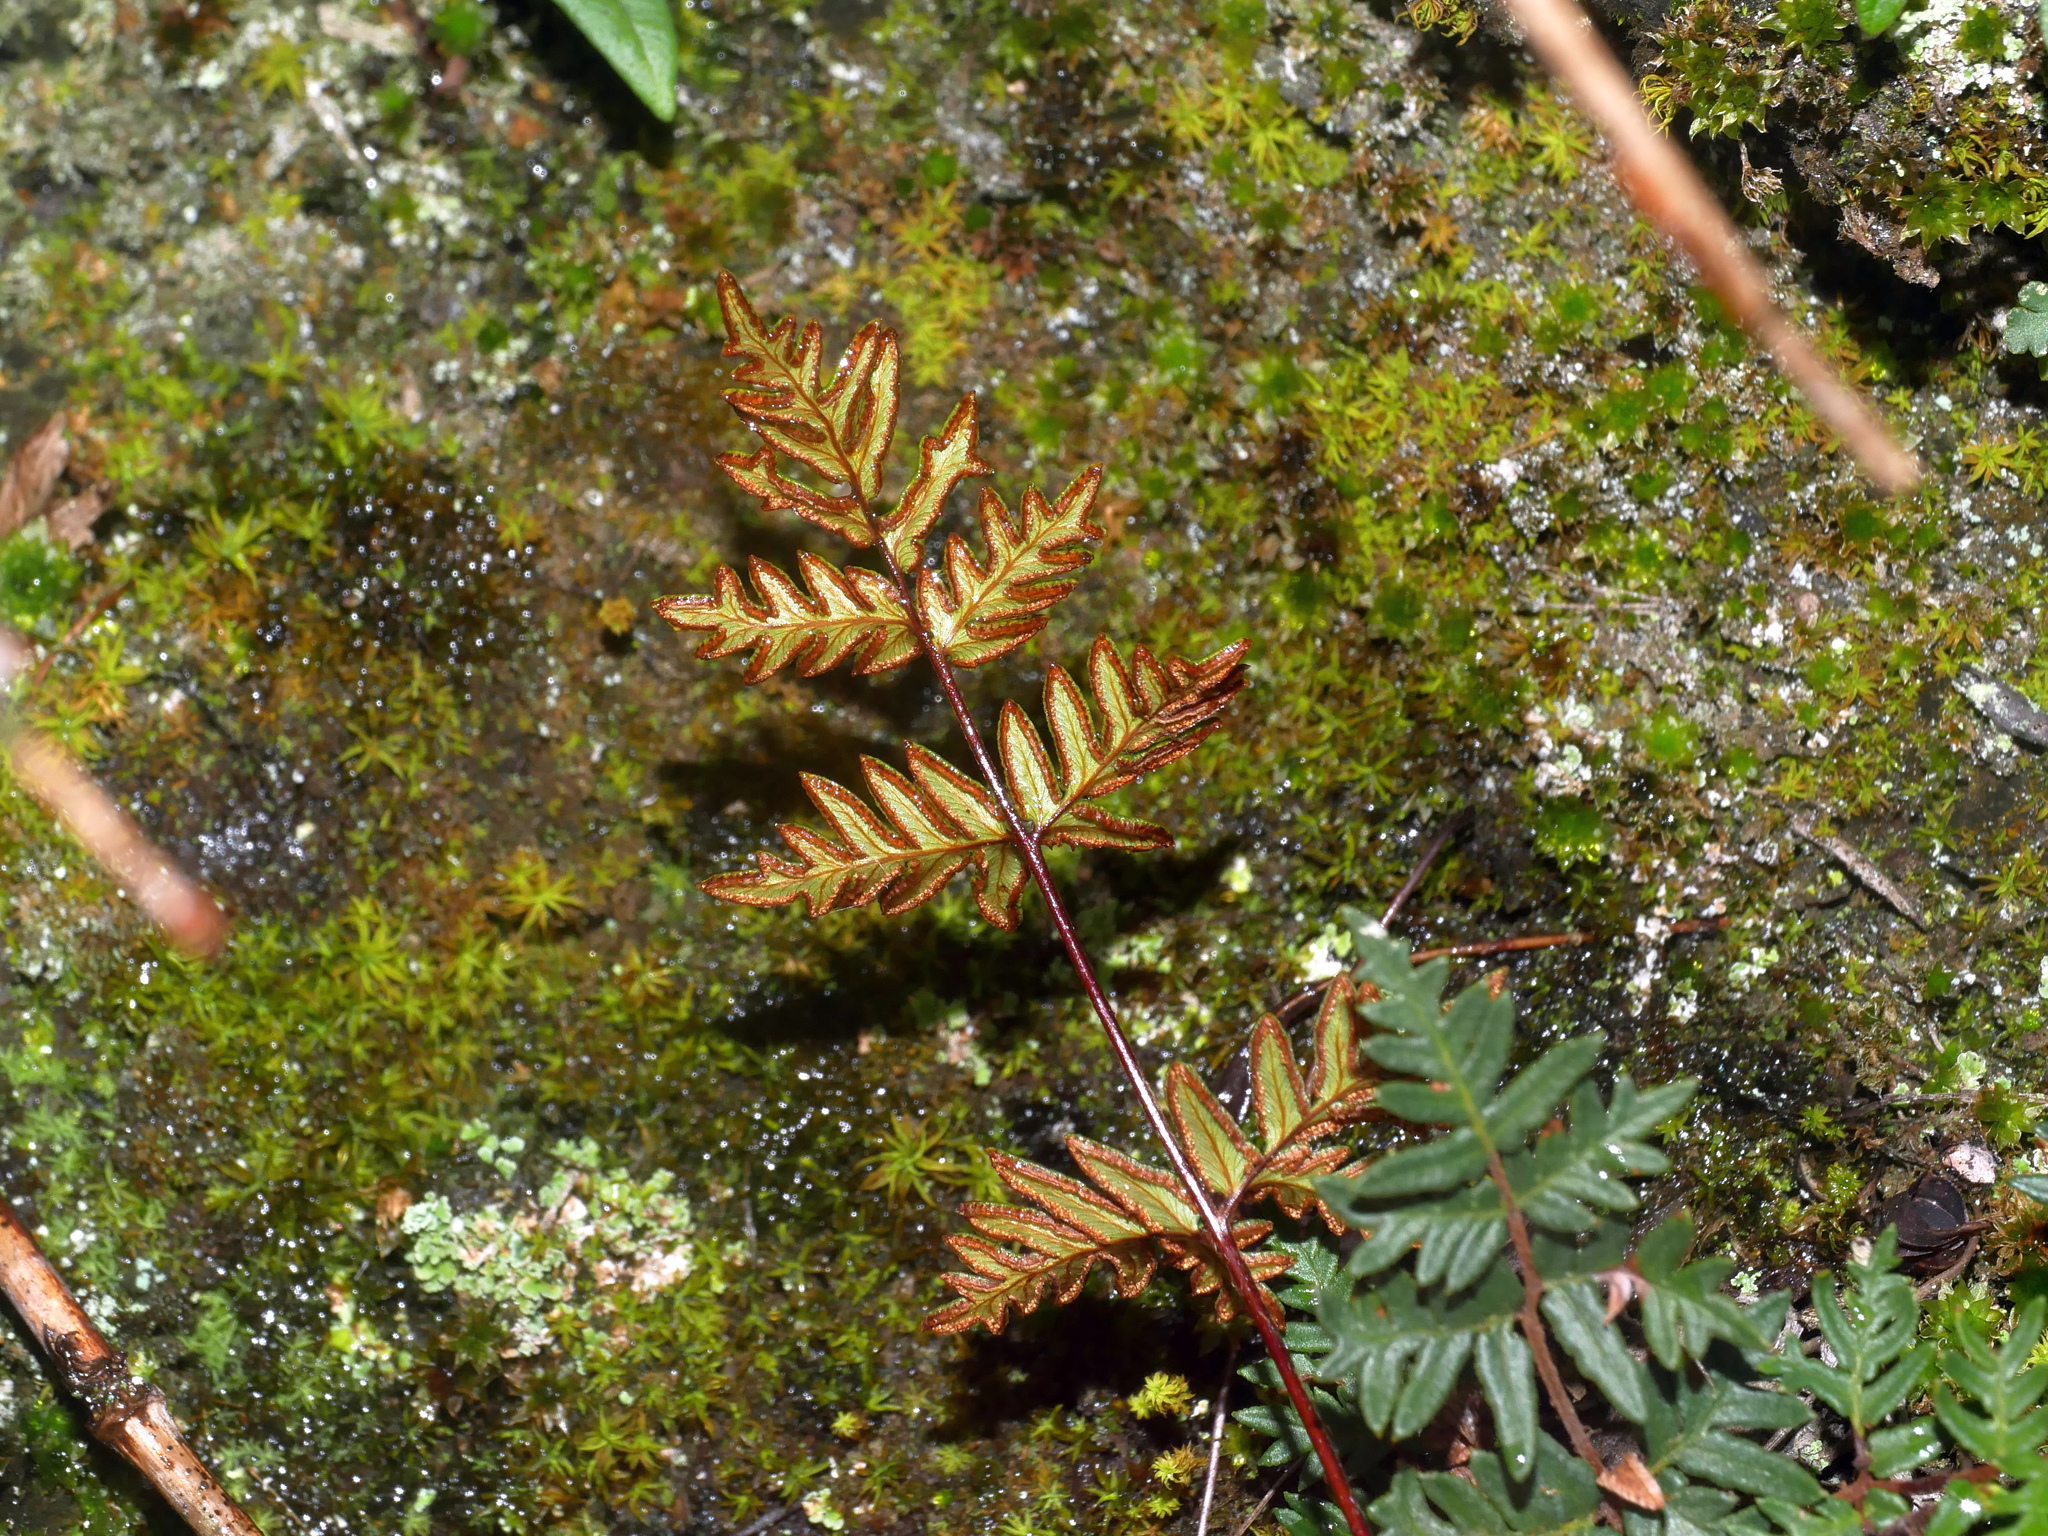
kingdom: Plantae
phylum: Tracheophyta
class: Polypodiopsida
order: Polypodiales
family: Pteridaceae
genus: Mildella
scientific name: Mildella nitidula
